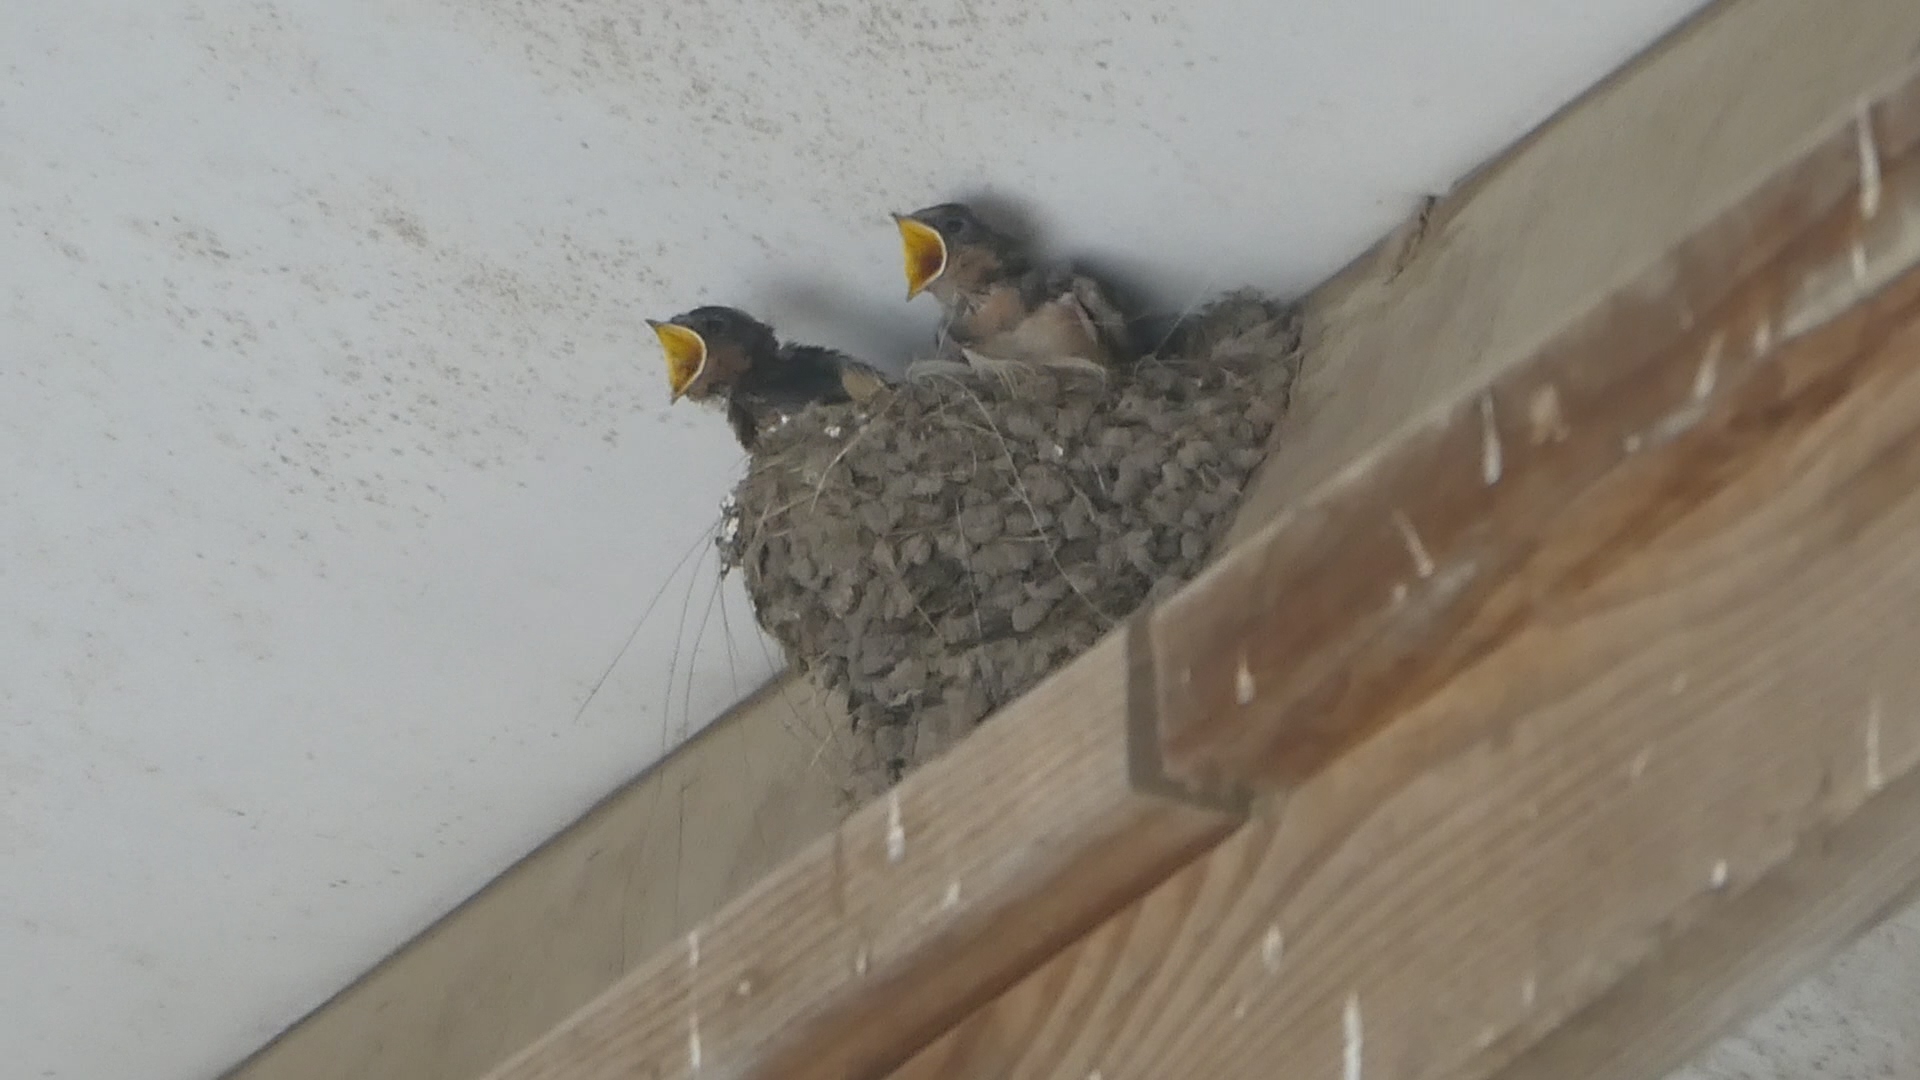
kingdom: Animalia
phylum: Chordata
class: Aves
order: Passeriformes
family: Hirundinidae
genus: Hirundo
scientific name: Hirundo rustica
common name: Barn swallow
